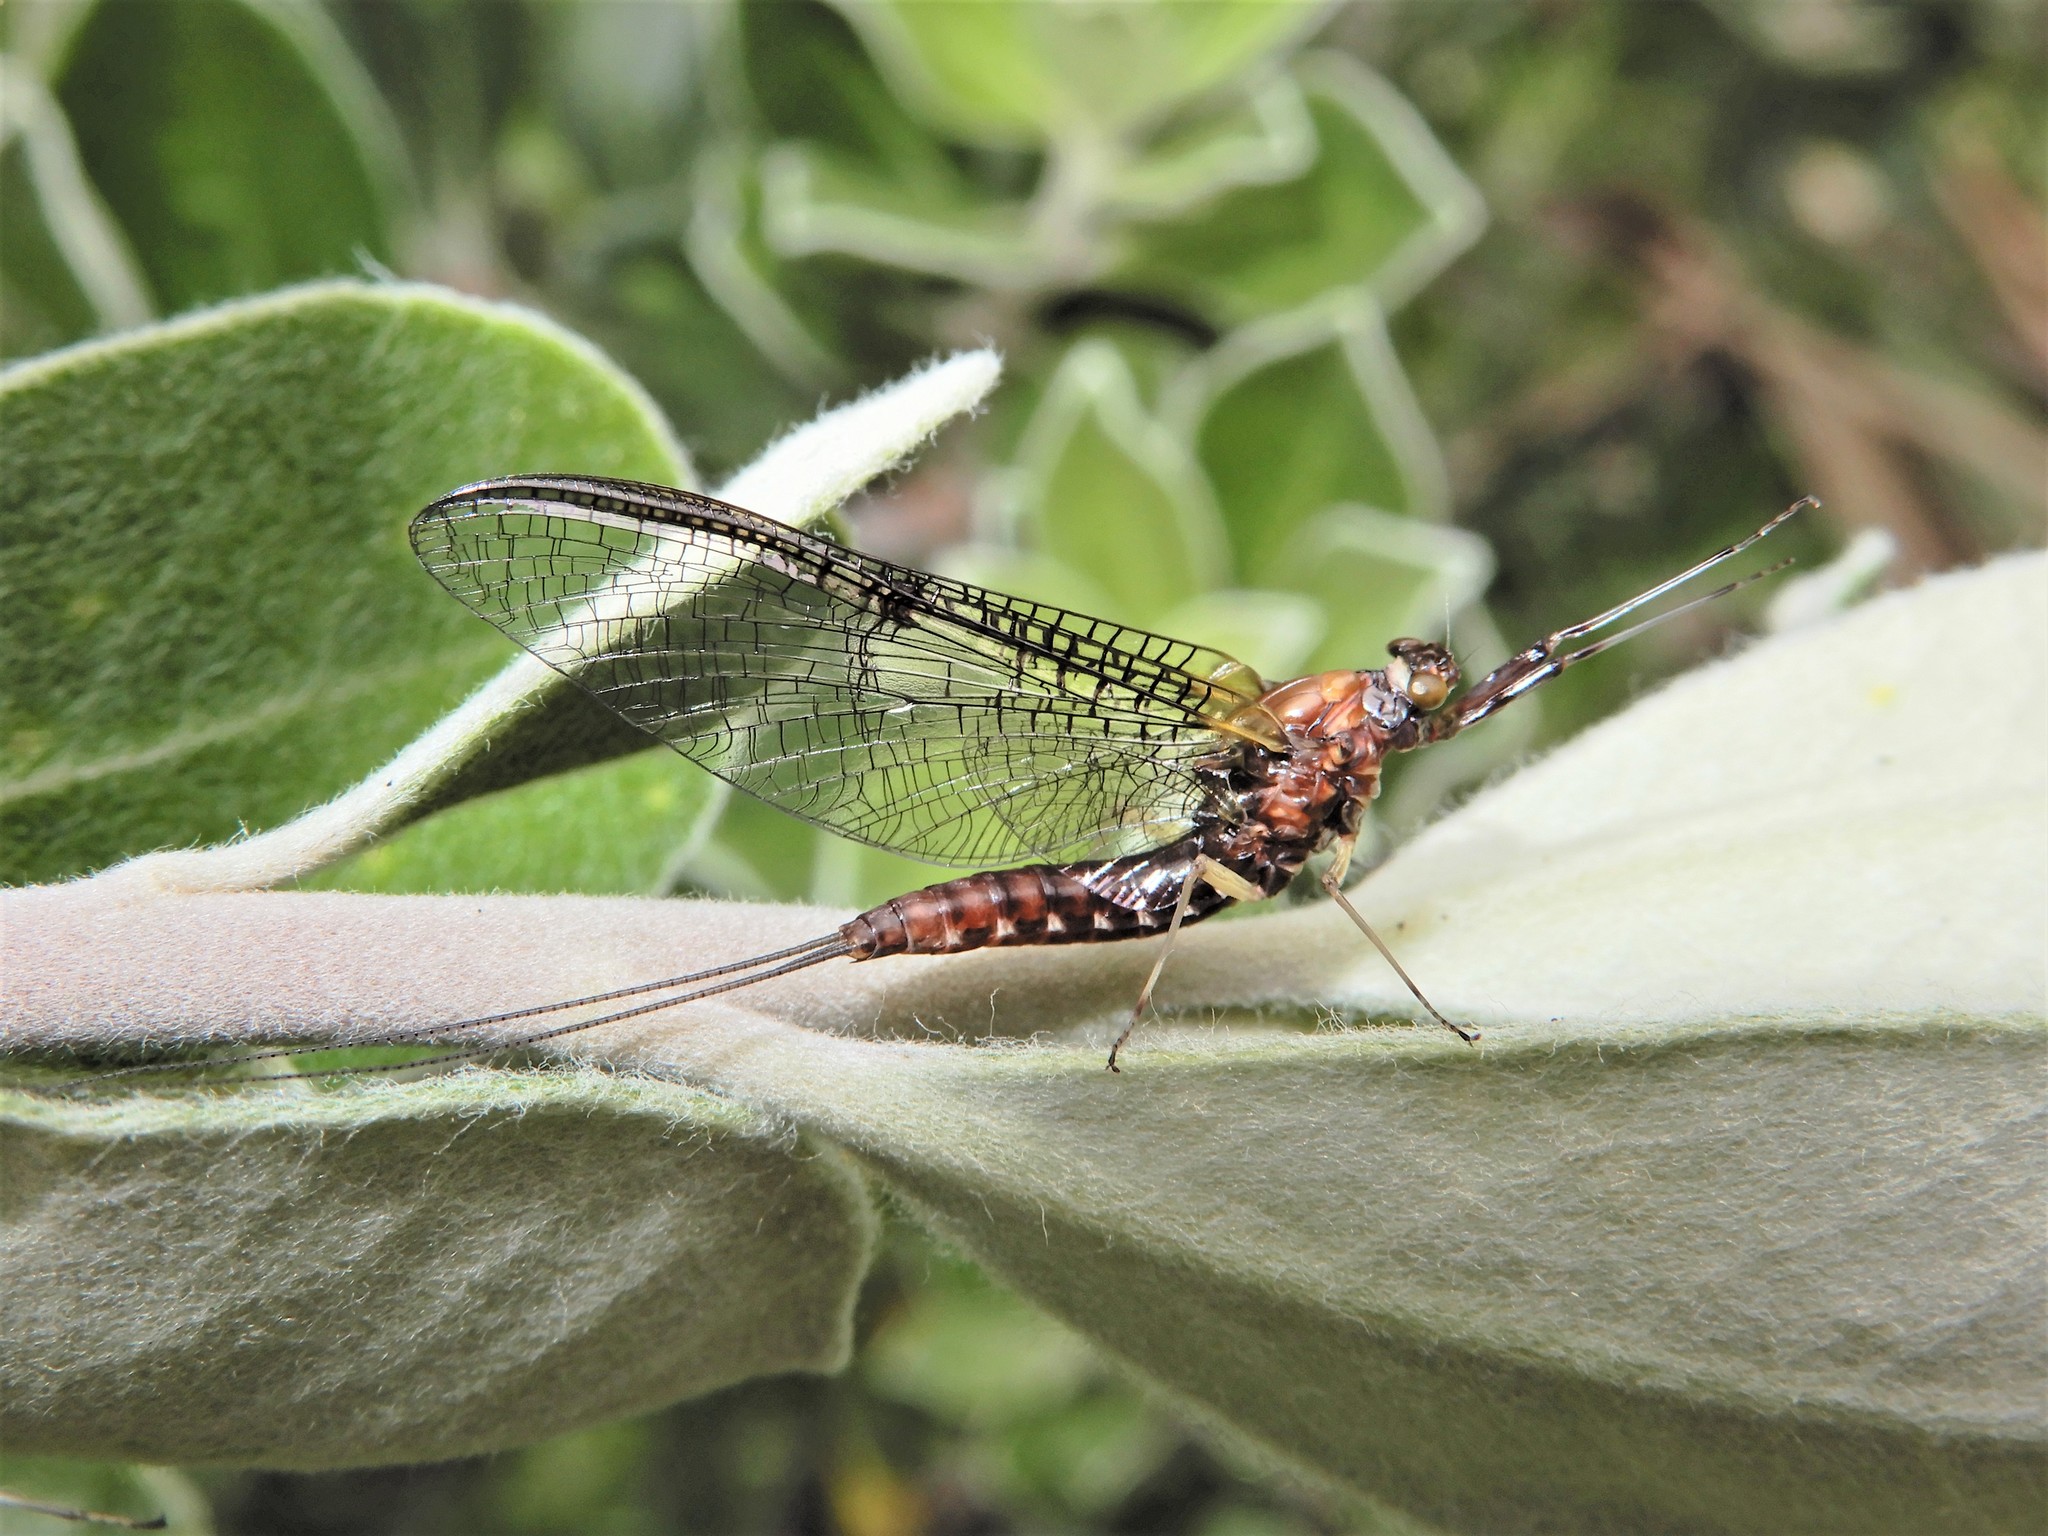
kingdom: Animalia
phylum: Arthropoda
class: Insecta
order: Ephemeroptera
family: Coloburiscidae
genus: Coloburiscus
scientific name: Coloburiscus humeralis
